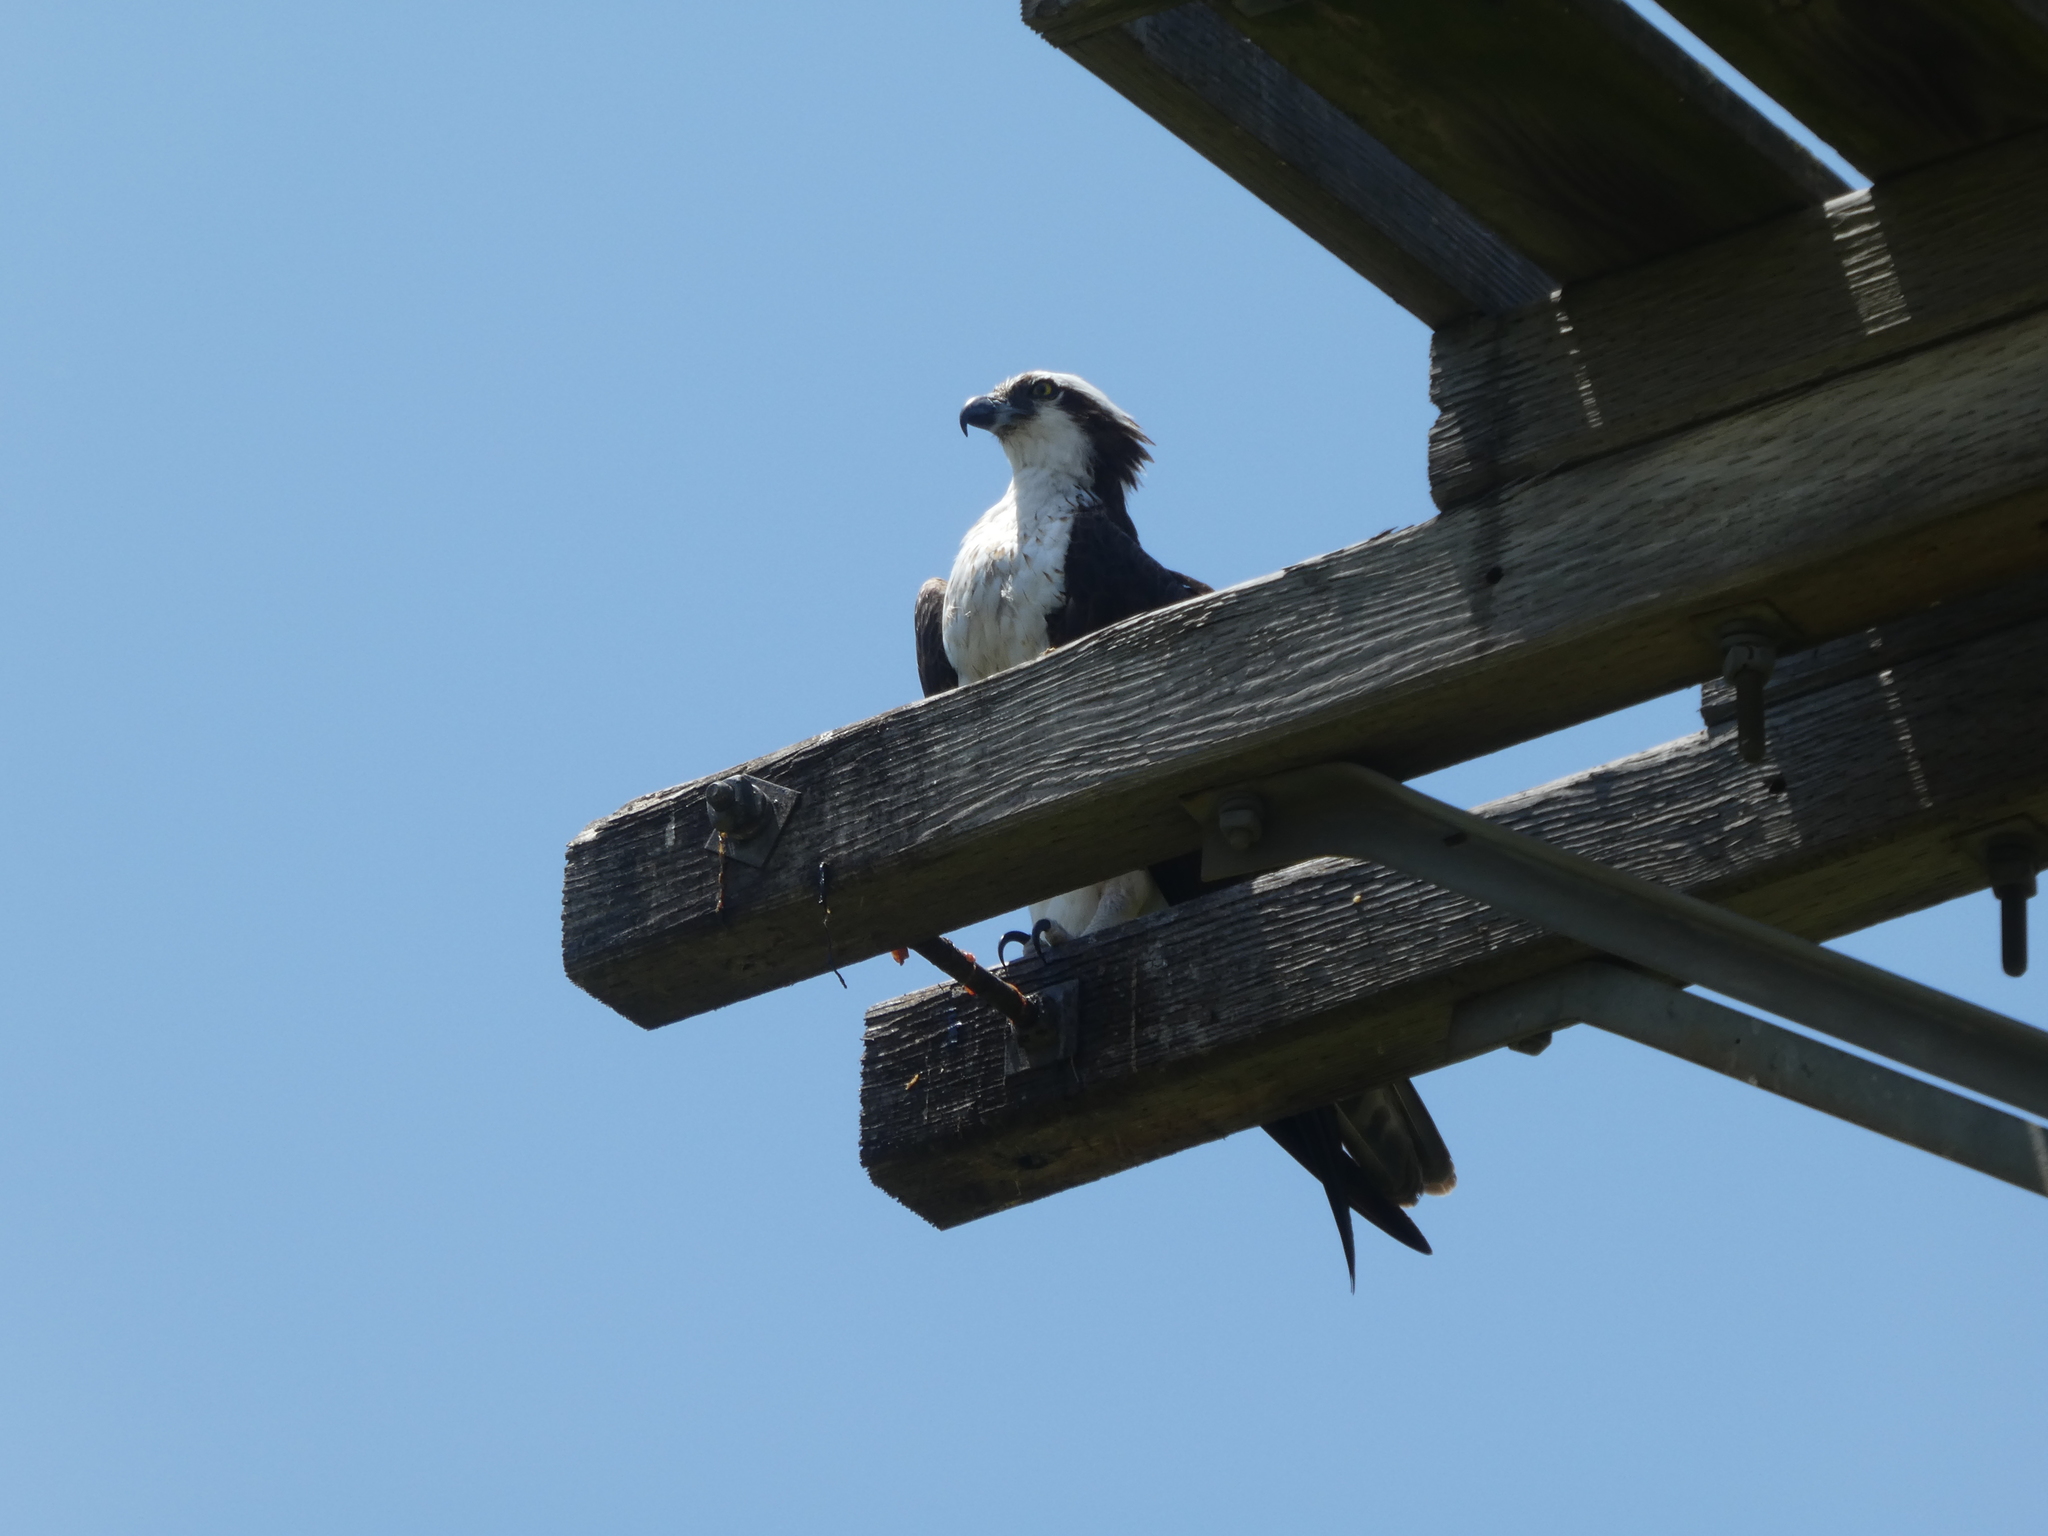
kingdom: Animalia
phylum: Chordata
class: Aves
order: Accipitriformes
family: Pandionidae
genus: Pandion
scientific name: Pandion haliaetus
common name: Osprey
